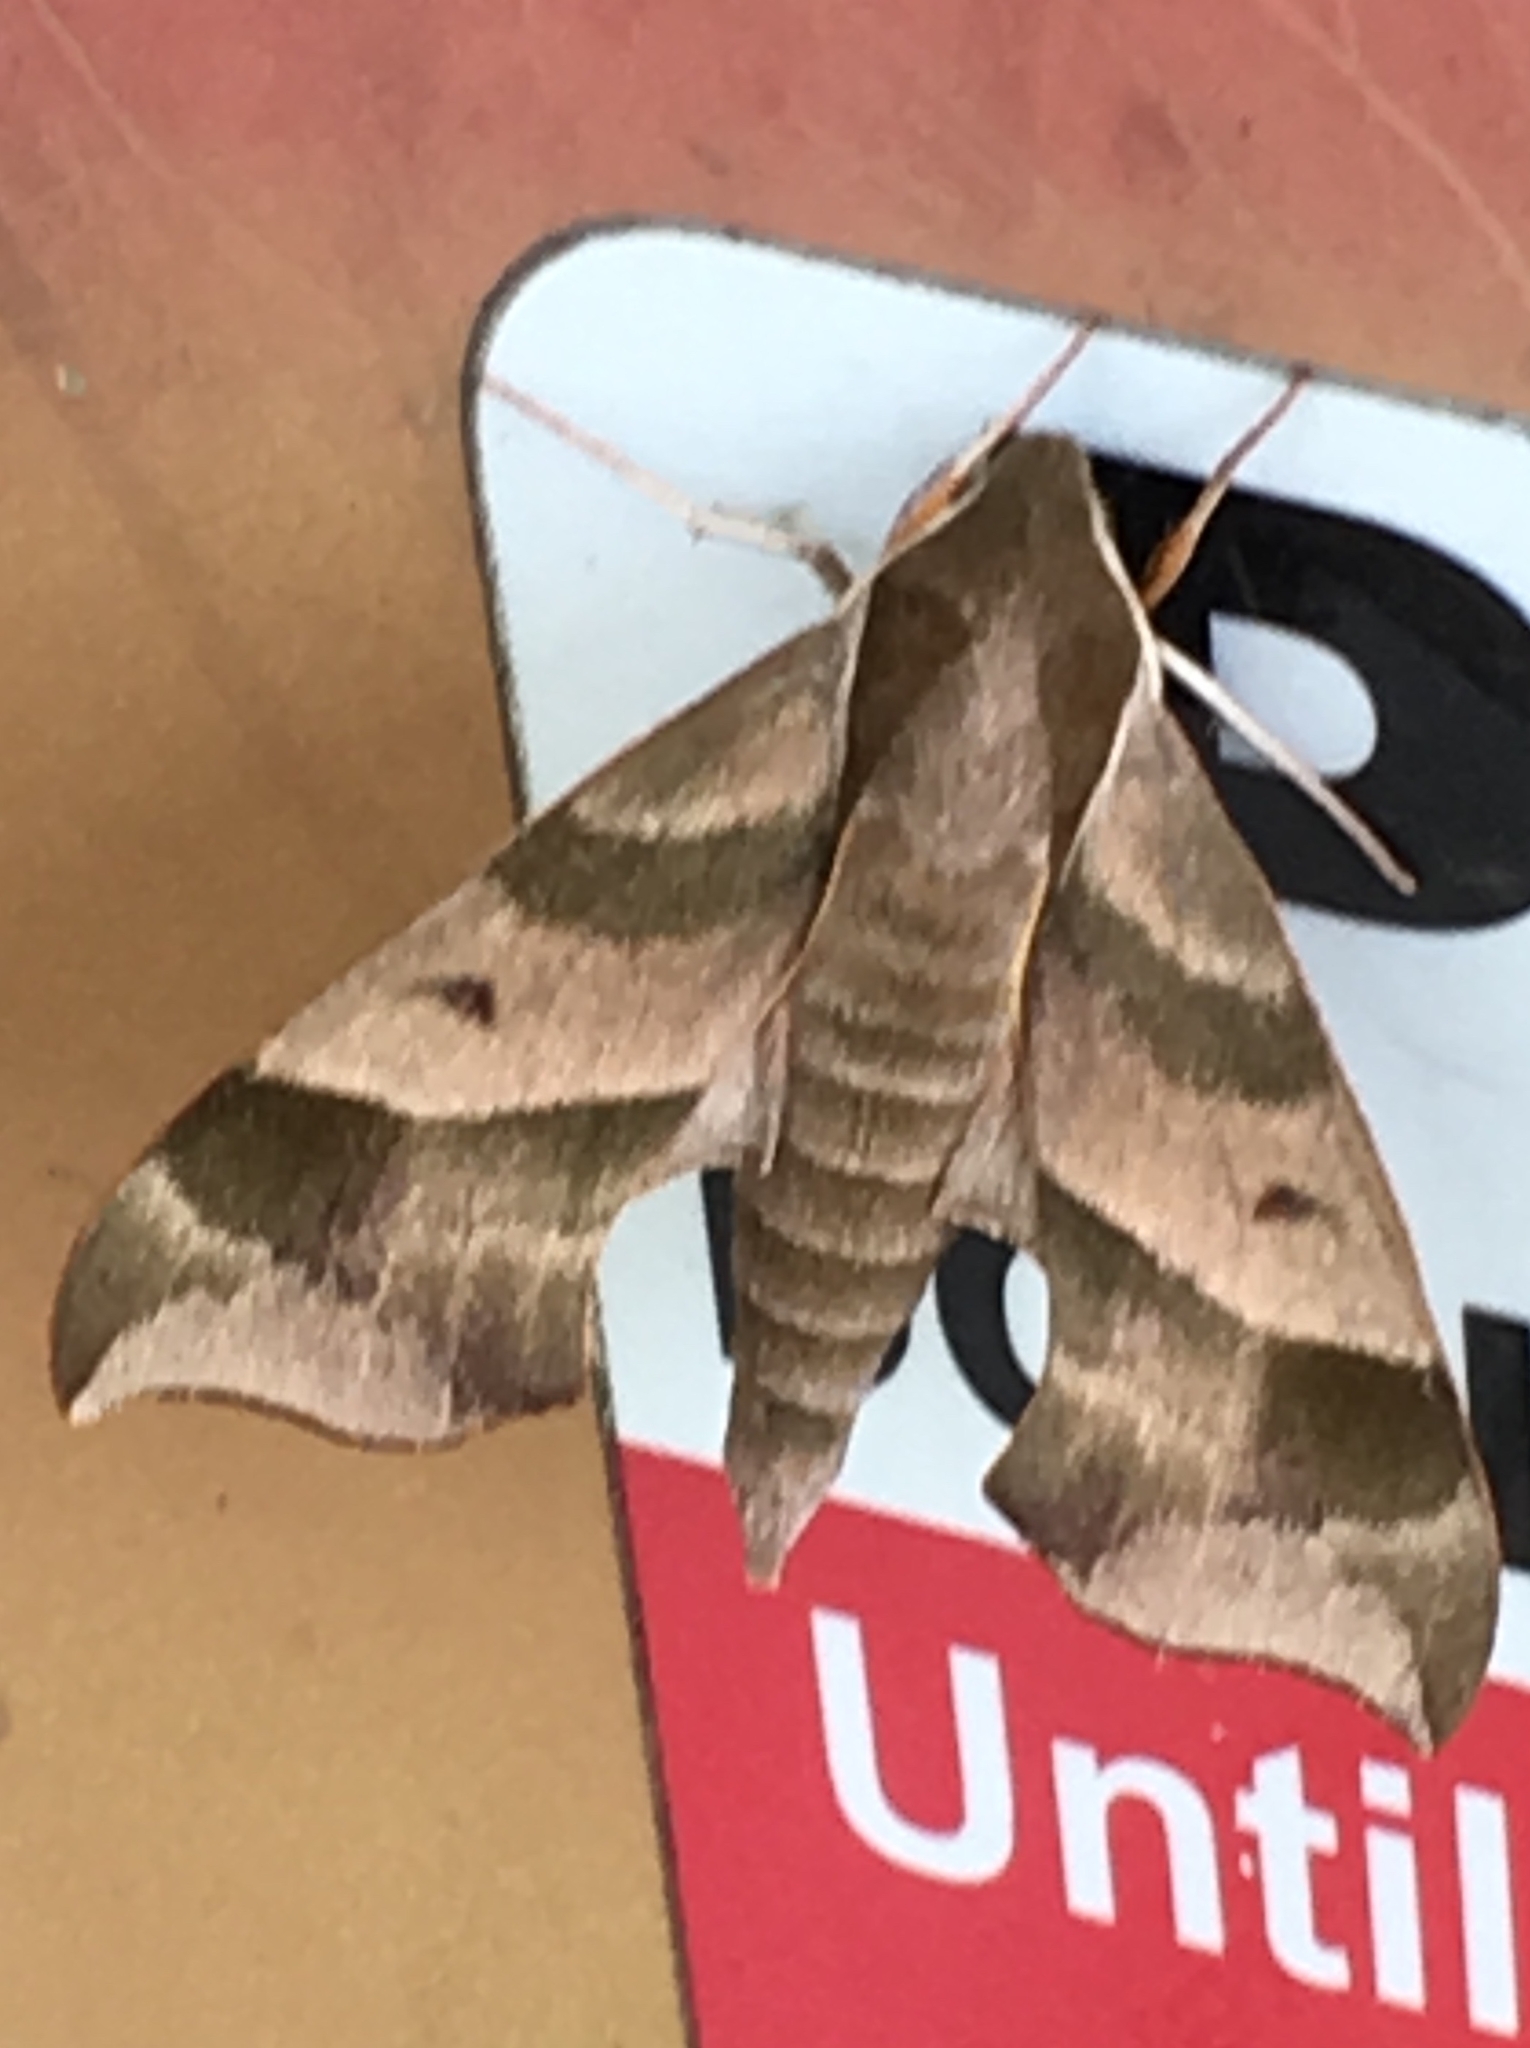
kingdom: Animalia
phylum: Arthropoda
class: Insecta
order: Lepidoptera
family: Sphingidae
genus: Darapsa
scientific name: Darapsa myron
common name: Hog sphinx
